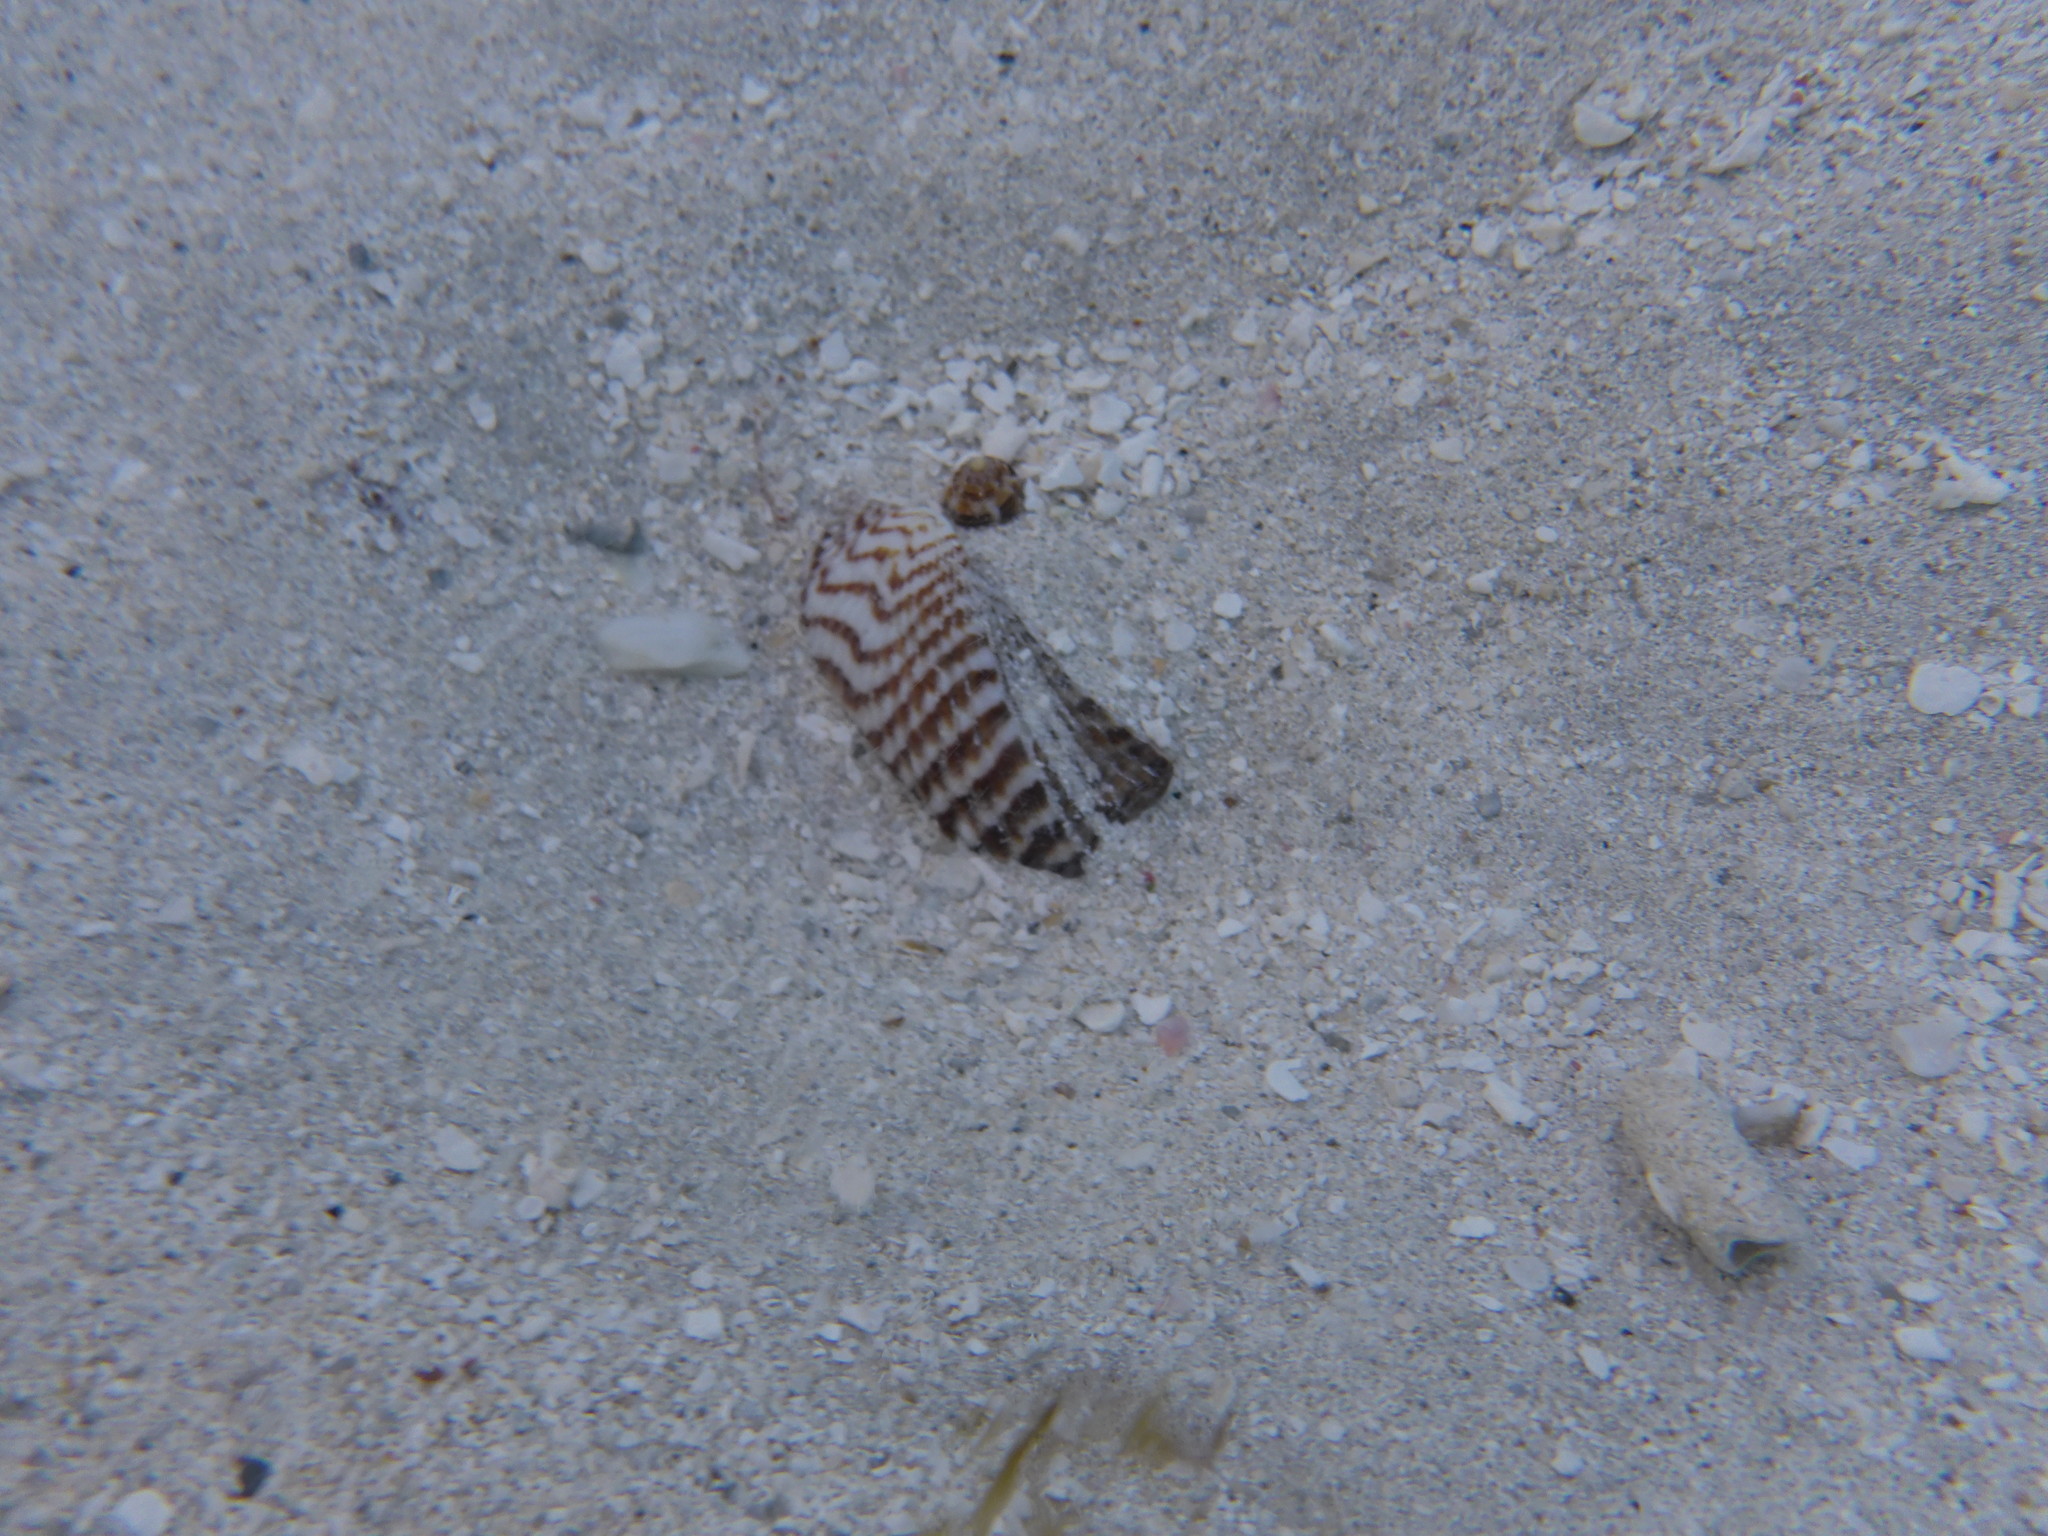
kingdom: Animalia
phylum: Mollusca
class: Bivalvia
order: Arcida
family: Arcidae
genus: Arca
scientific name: Arca zebra
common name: Atlantic turkey wing
